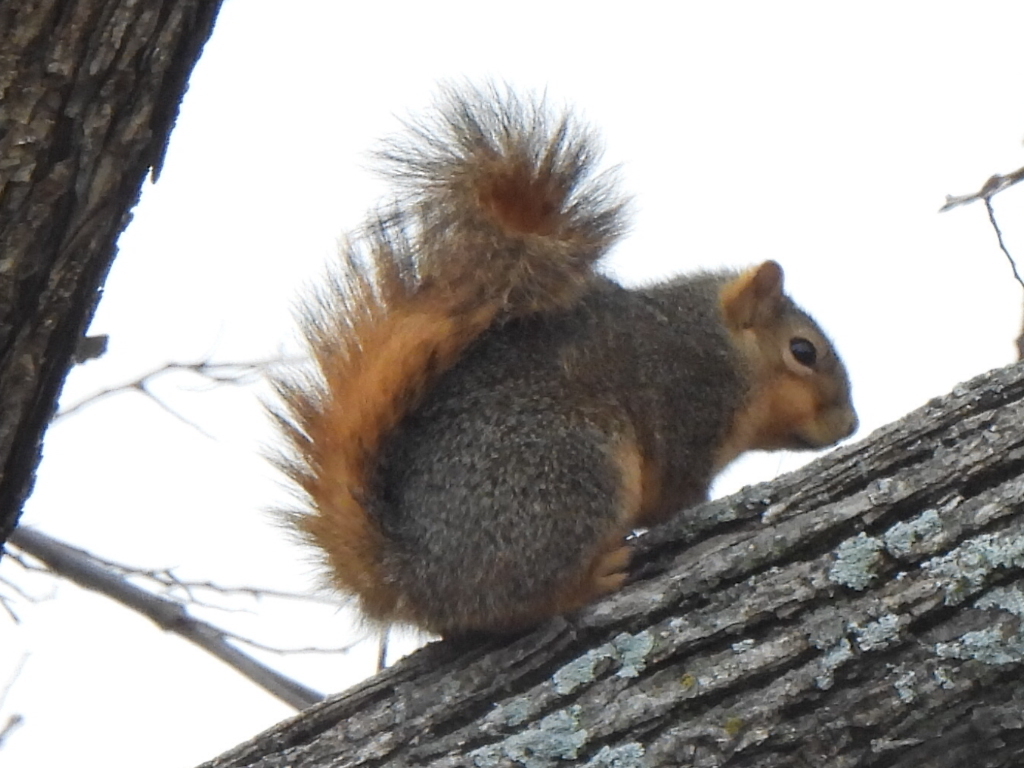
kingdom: Animalia
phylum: Chordata
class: Mammalia
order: Rodentia
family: Sciuridae
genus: Sciurus
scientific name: Sciurus niger
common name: Fox squirrel
